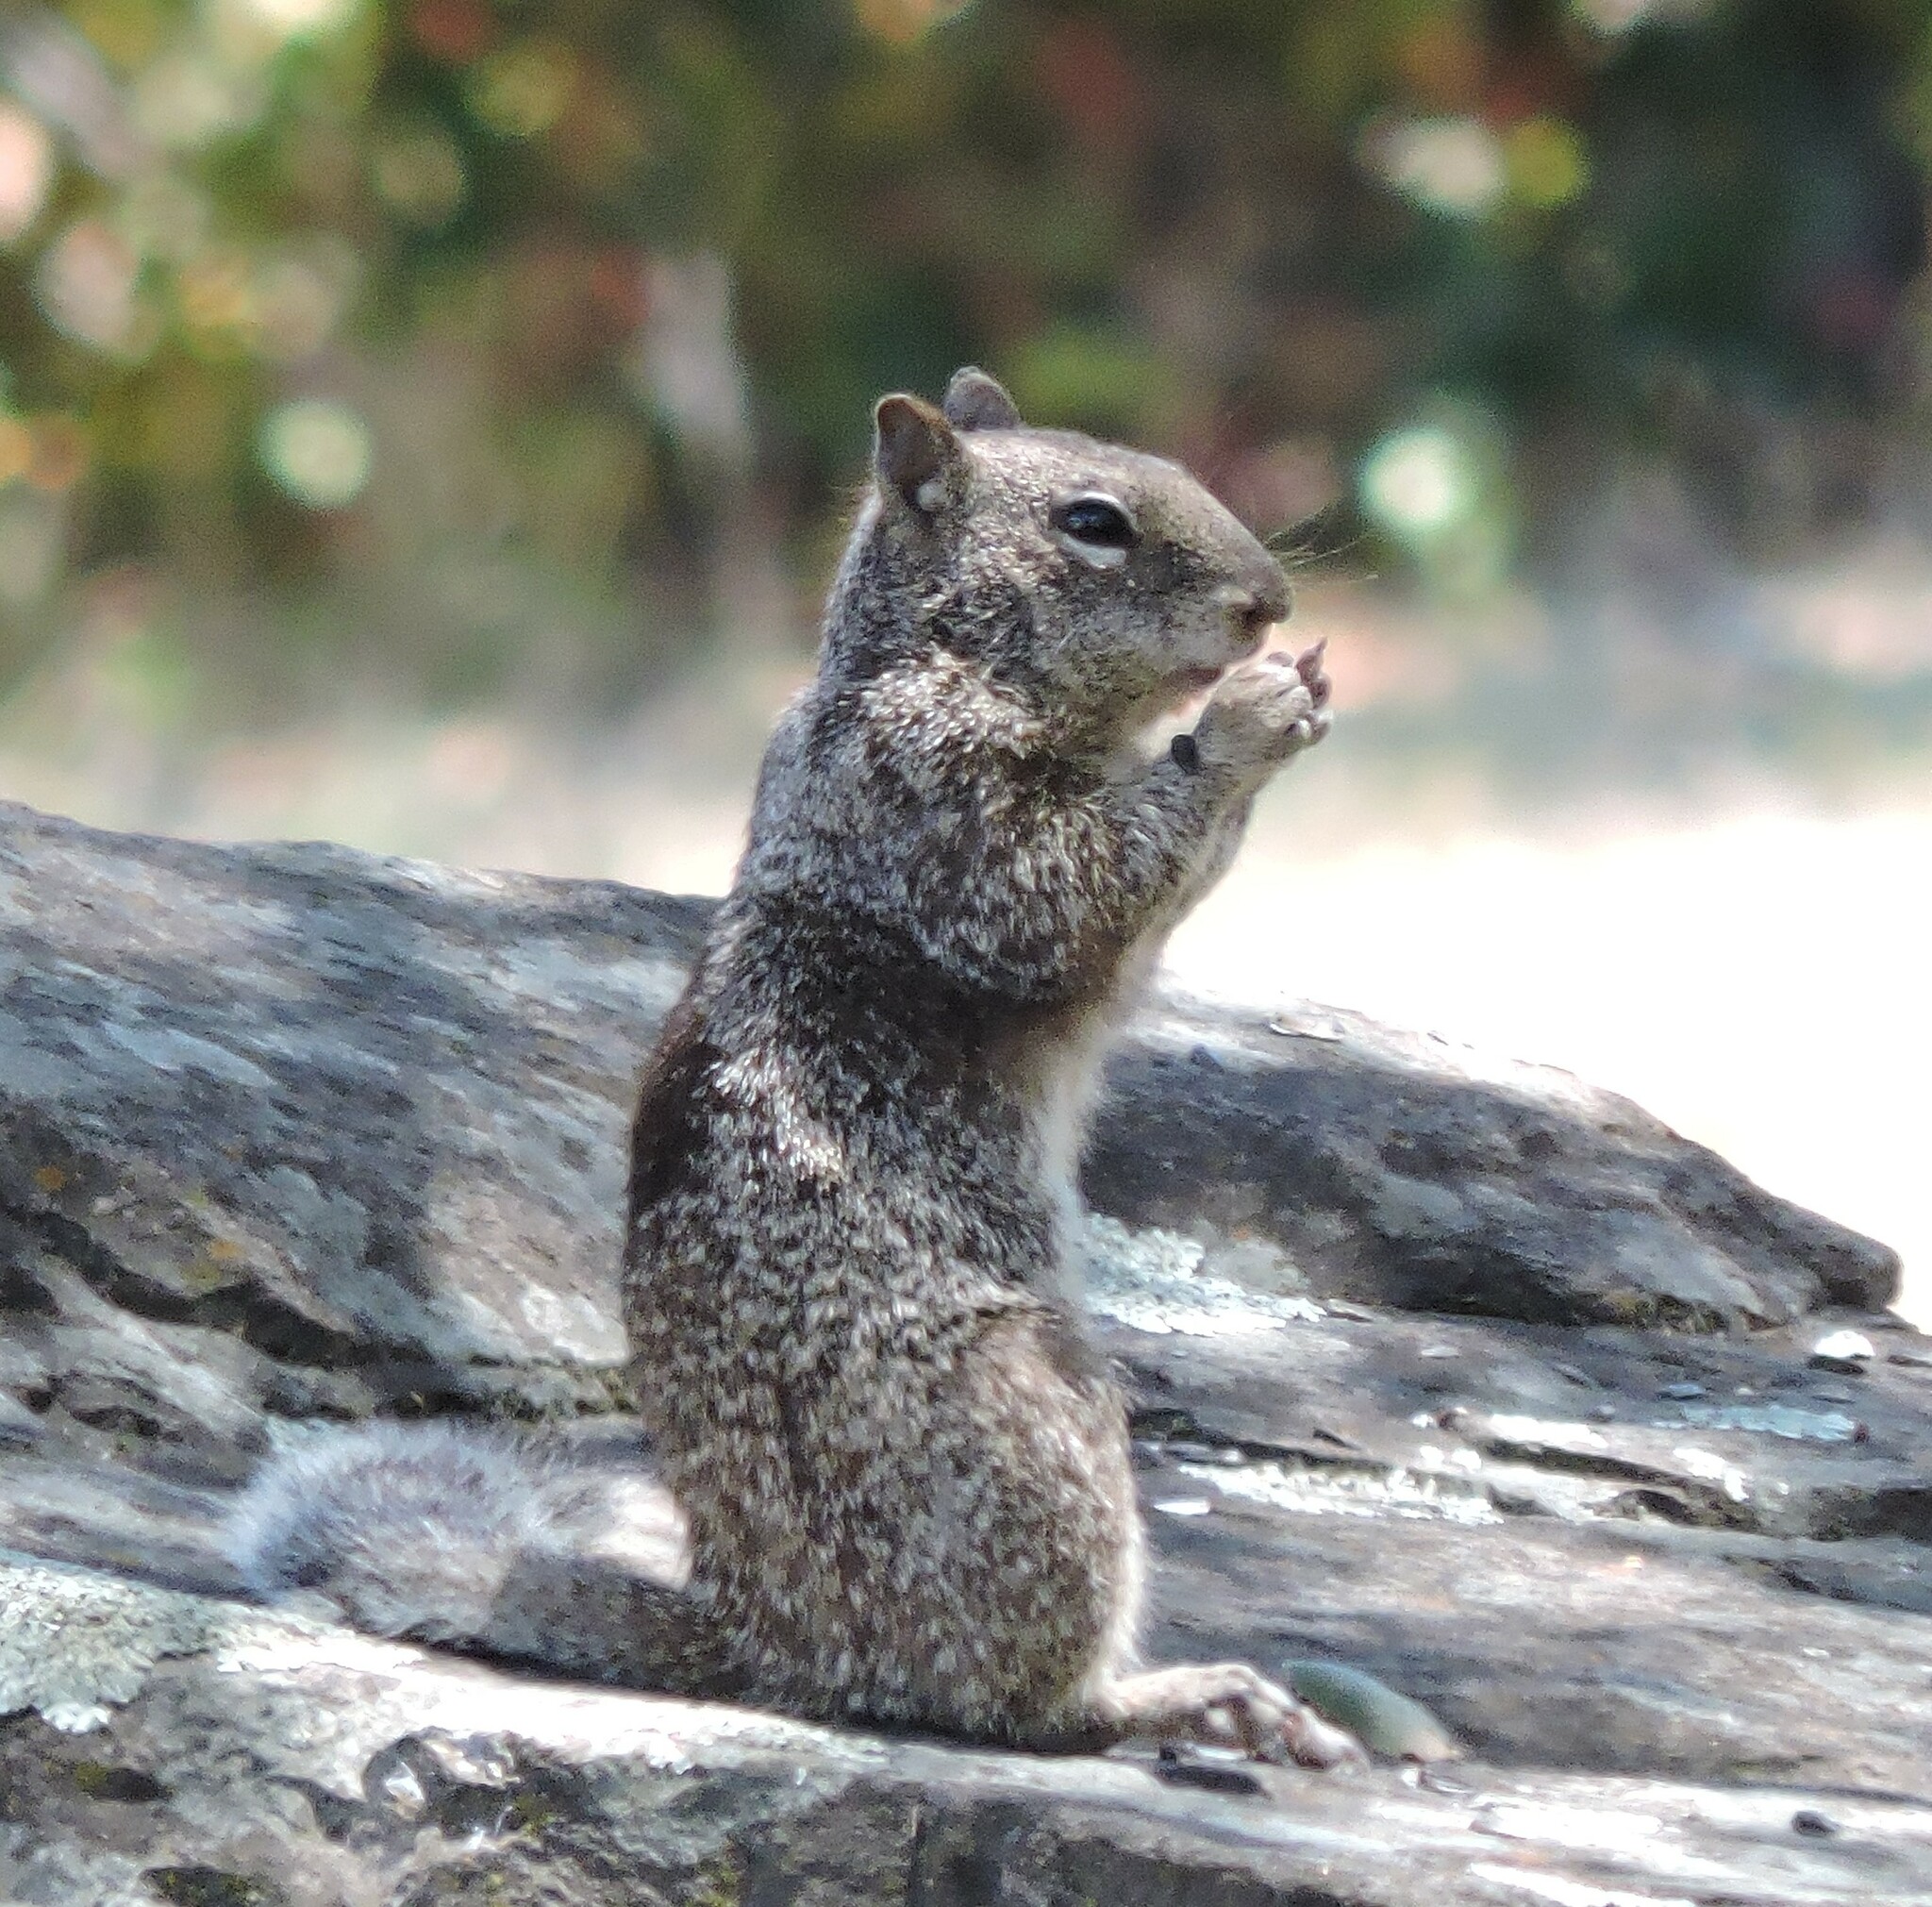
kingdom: Animalia
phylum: Chordata
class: Mammalia
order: Rodentia
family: Sciuridae
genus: Otospermophilus
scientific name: Otospermophilus beecheyi
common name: California ground squirrel
